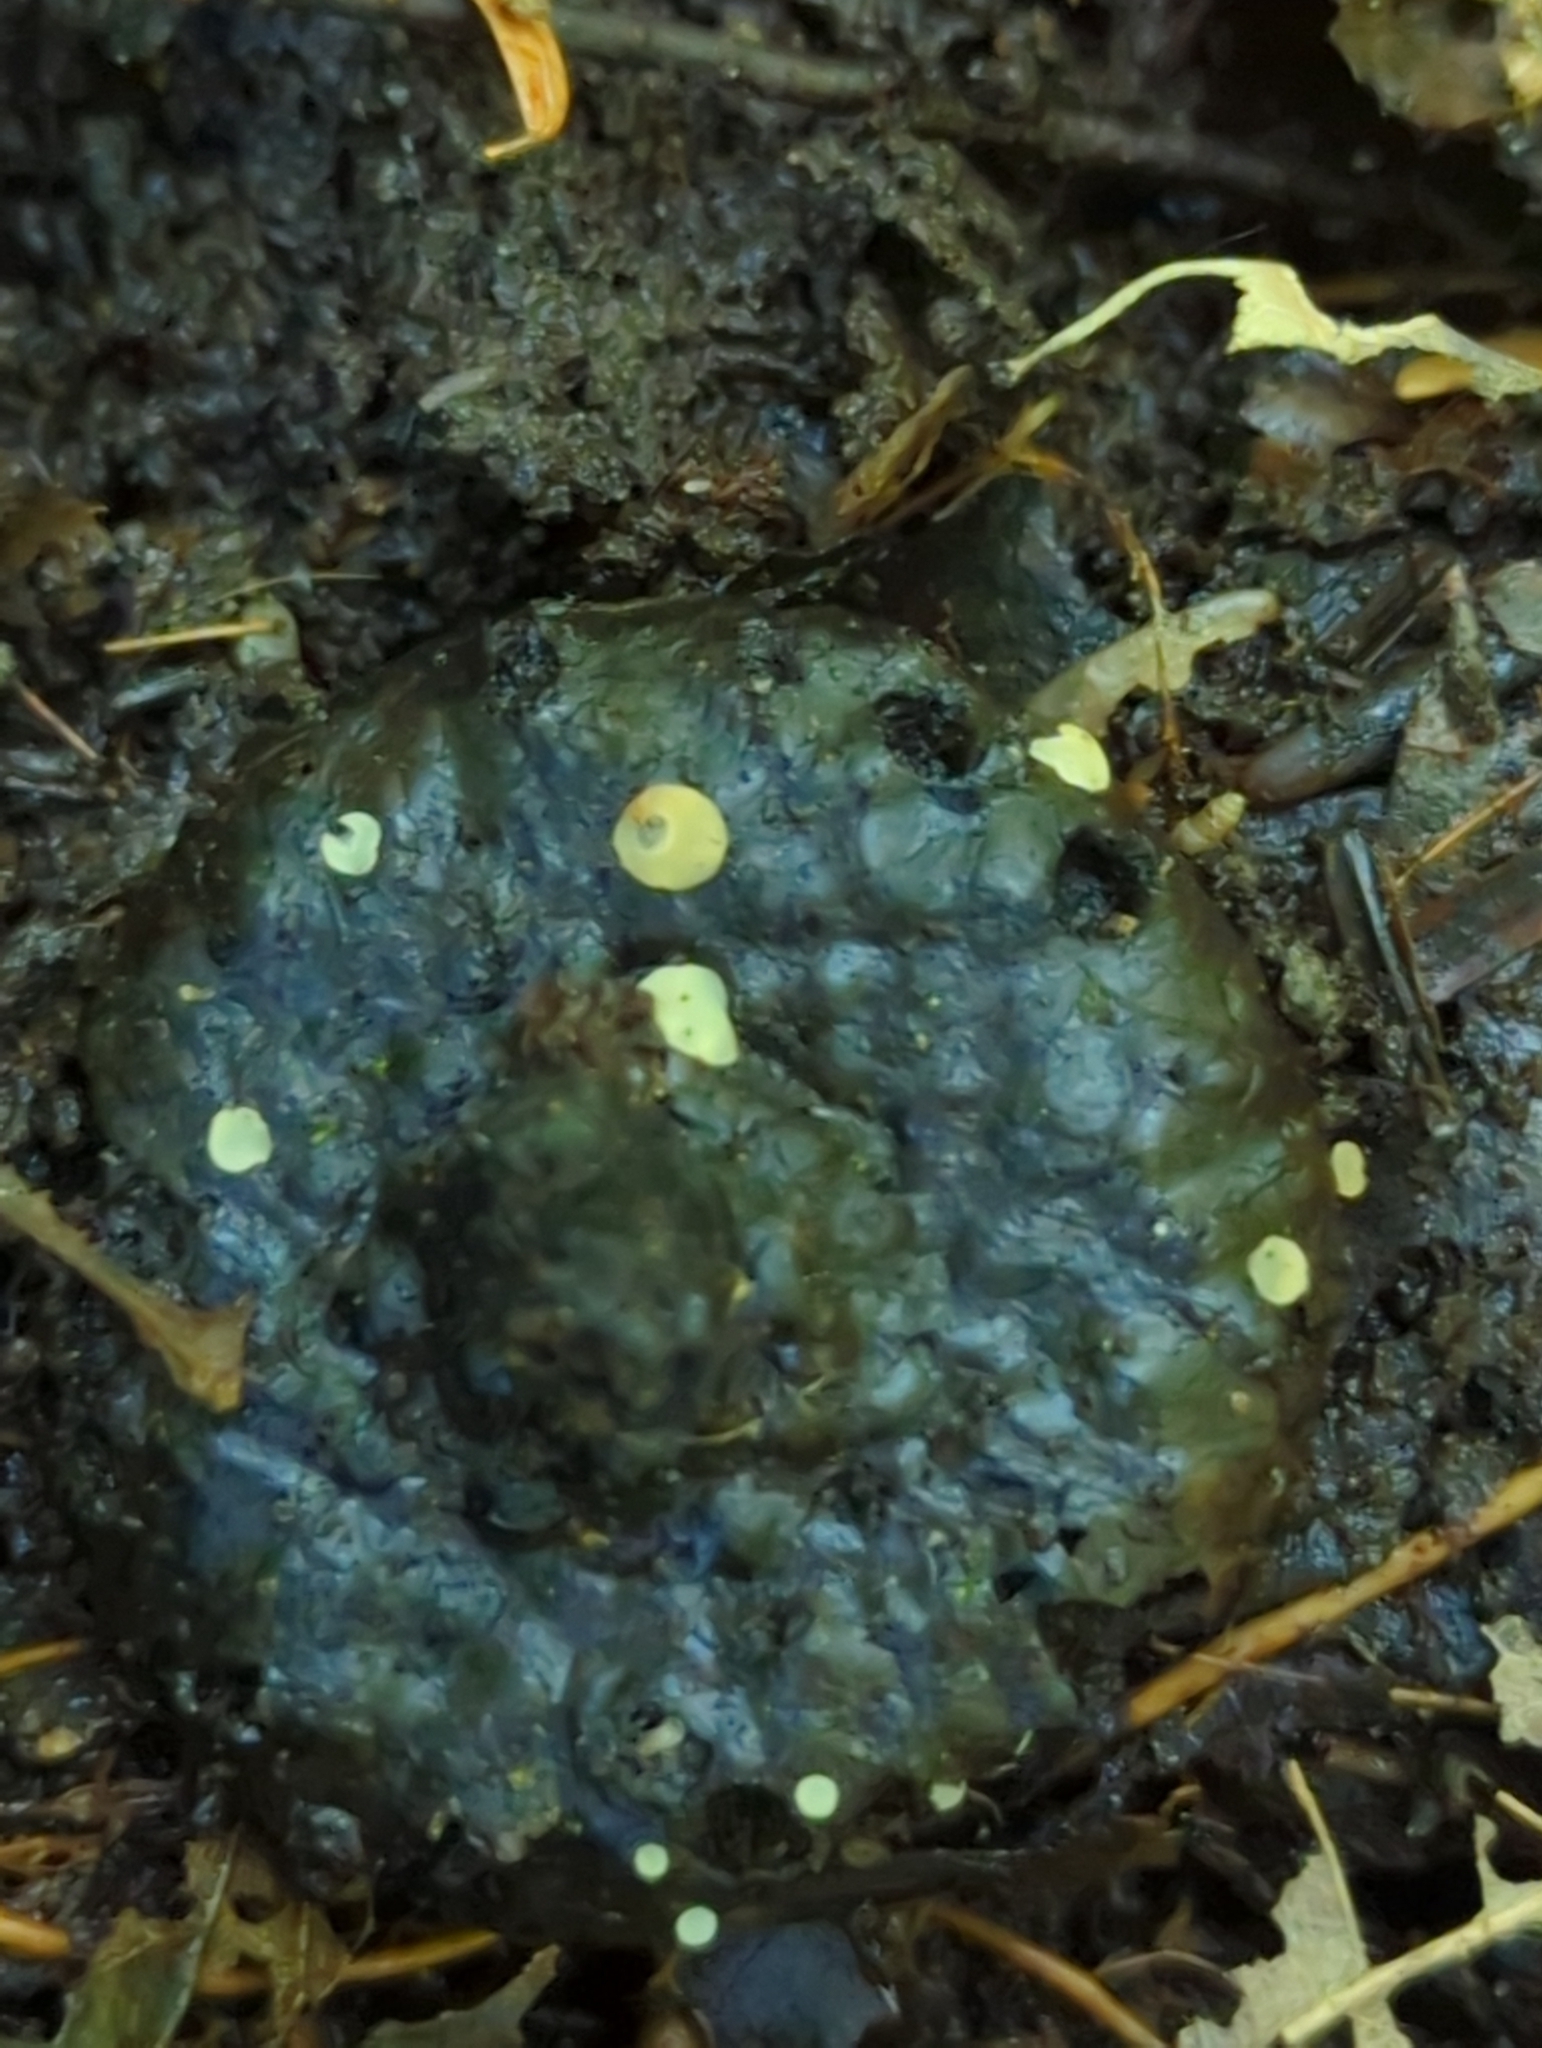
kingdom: Fungi
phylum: Ascomycota
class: Leotiomycetes
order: Helotiales
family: Helotiaceae
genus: Hymenoscyphus
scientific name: Hymenoscyphus fructigenus
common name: Nut disco
